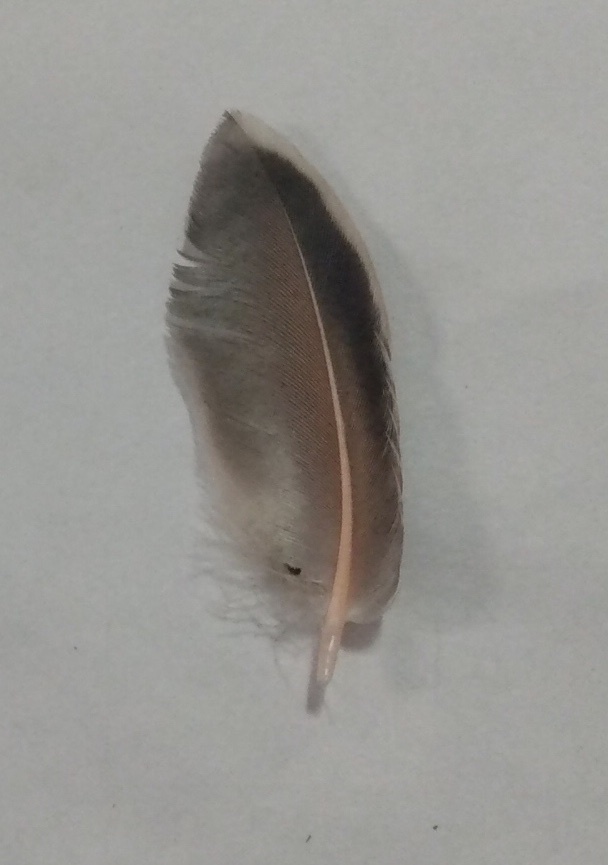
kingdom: Animalia
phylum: Chordata
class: Aves
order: Piciformes
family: Picidae
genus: Colaptes
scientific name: Colaptes auratus
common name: Northern flicker
